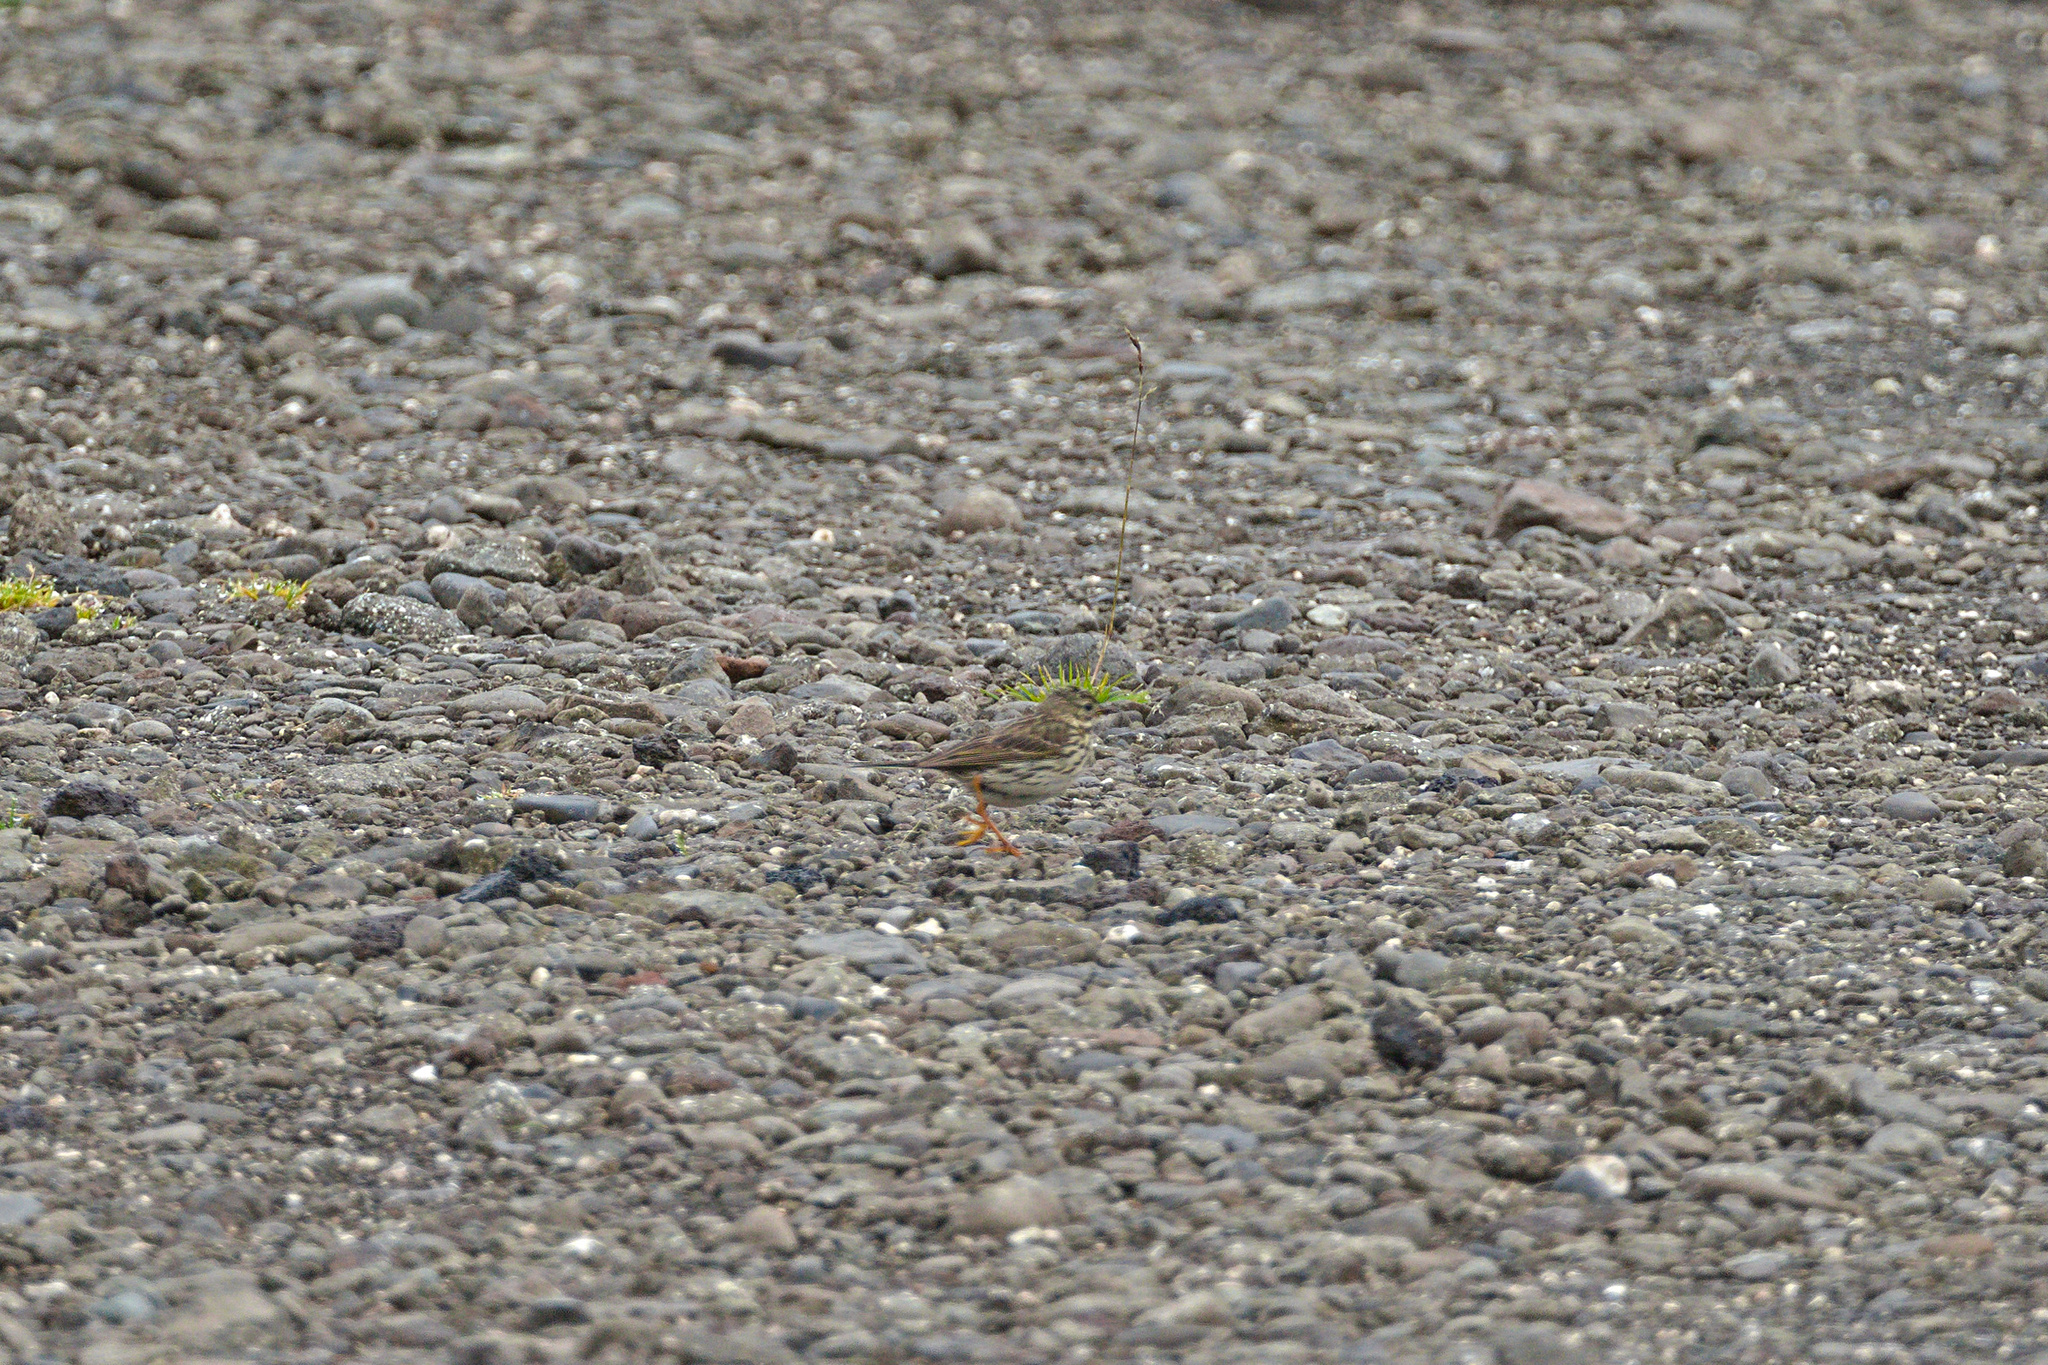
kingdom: Animalia
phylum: Chordata
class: Aves
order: Passeriformes
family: Motacillidae
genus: Anthus
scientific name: Anthus pratensis
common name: Meadow pipit
